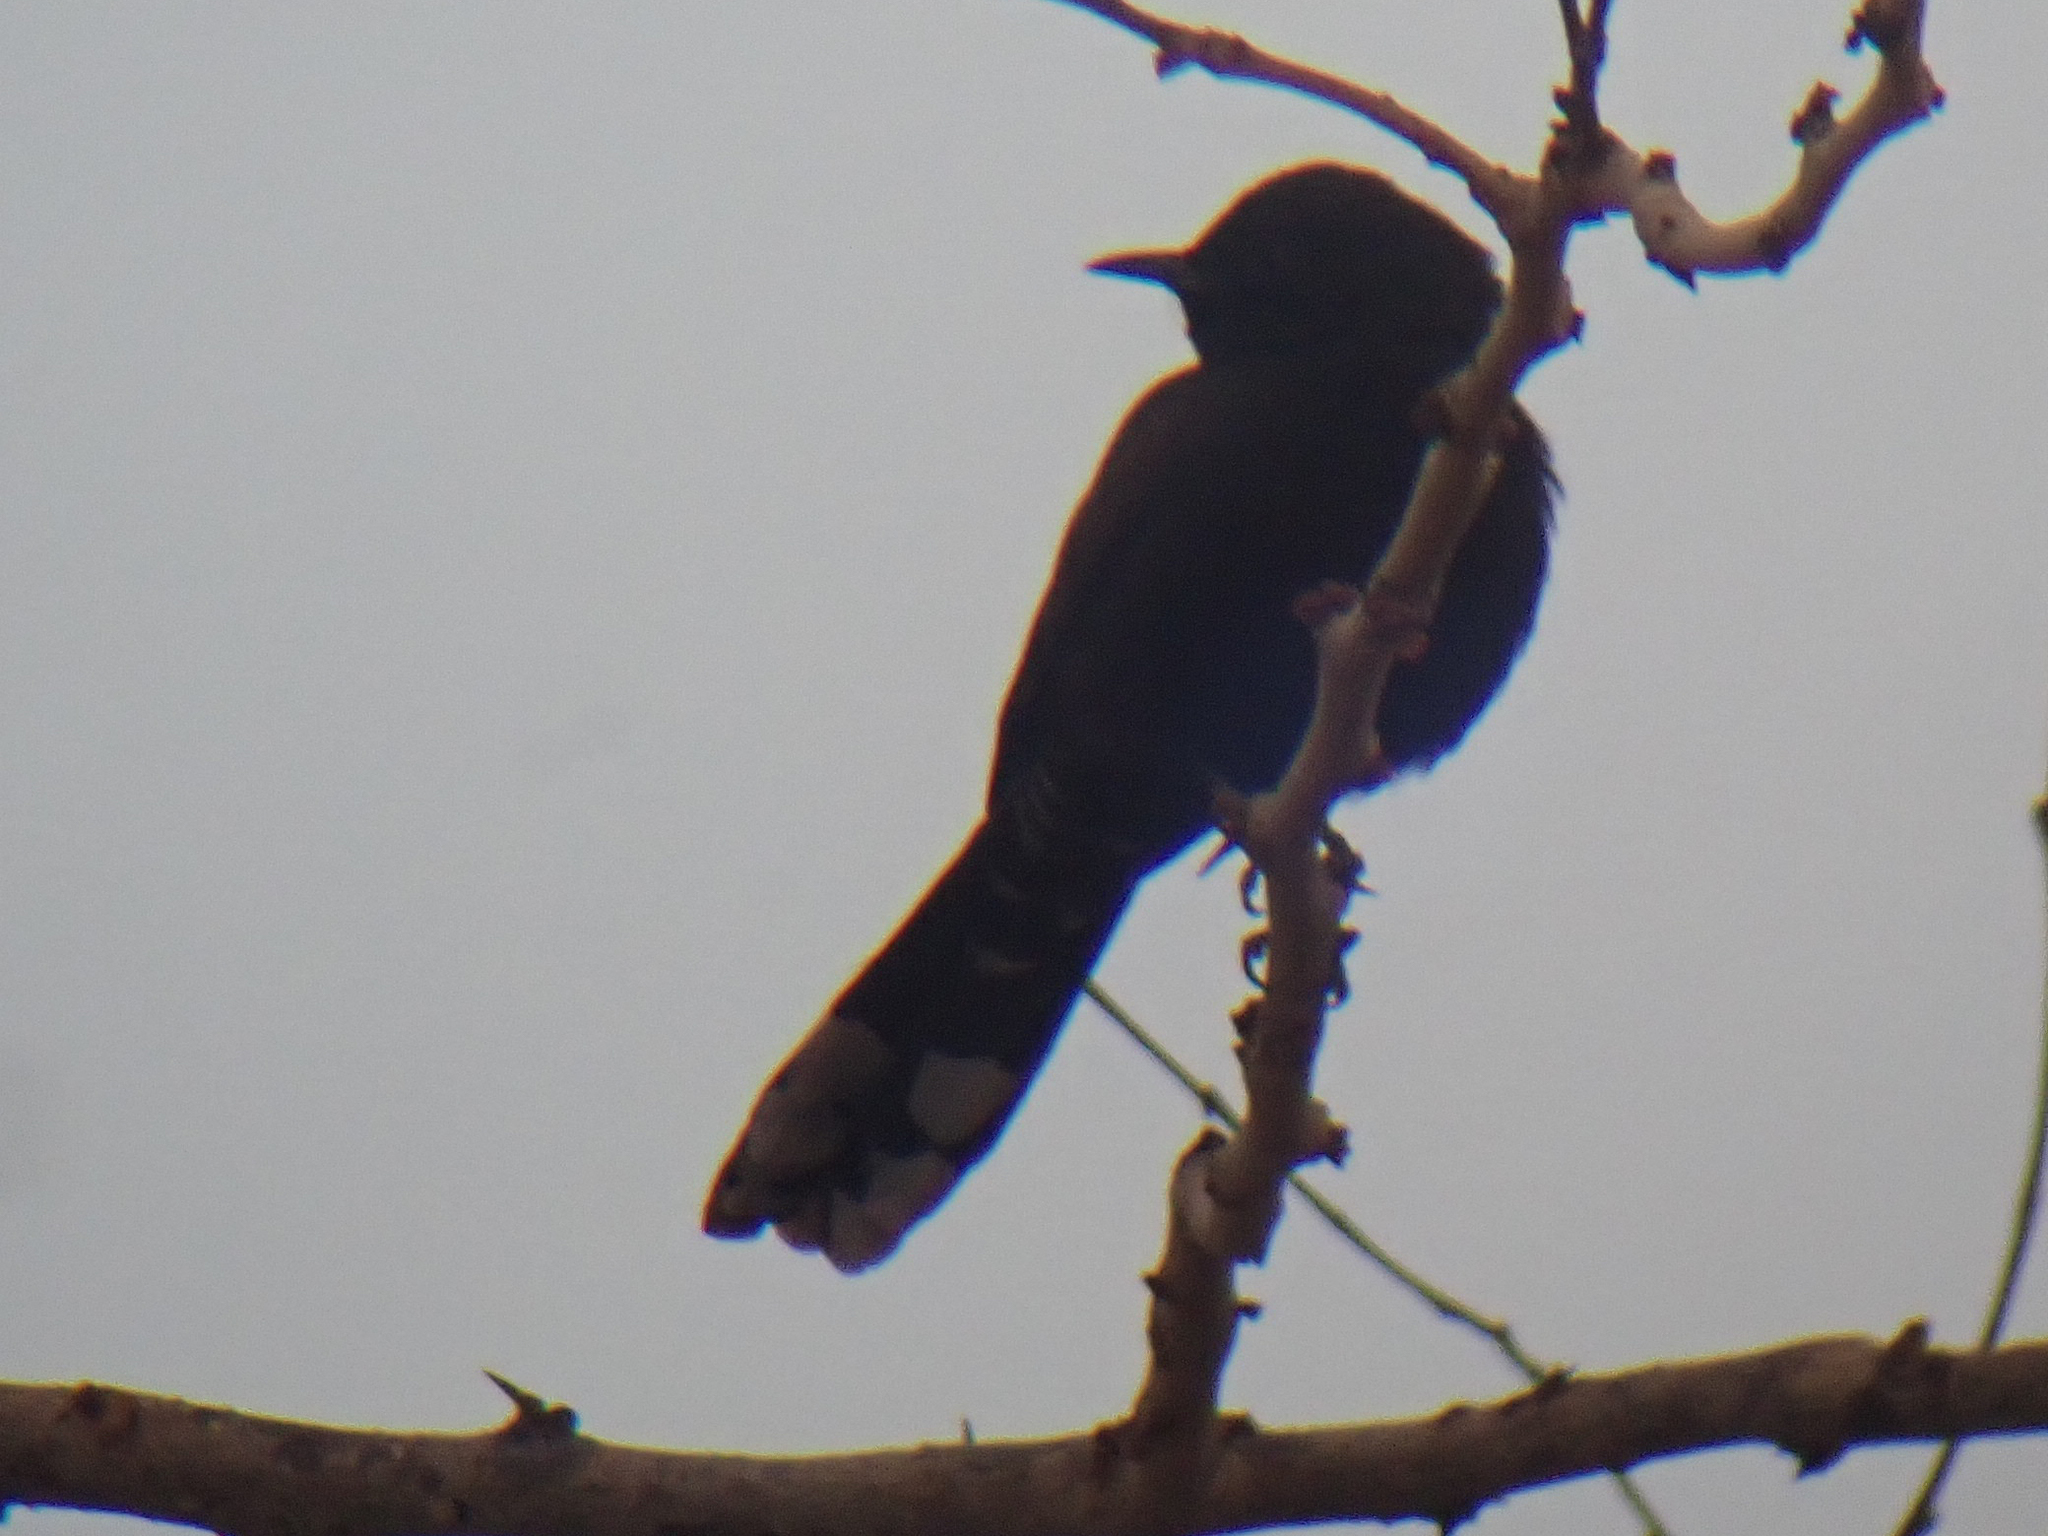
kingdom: Animalia
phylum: Chordata
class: Aves
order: Passeriformes
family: Muscicapidae
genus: Cercotrichas
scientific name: Cercotrichas podobe
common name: Black scrub robin
